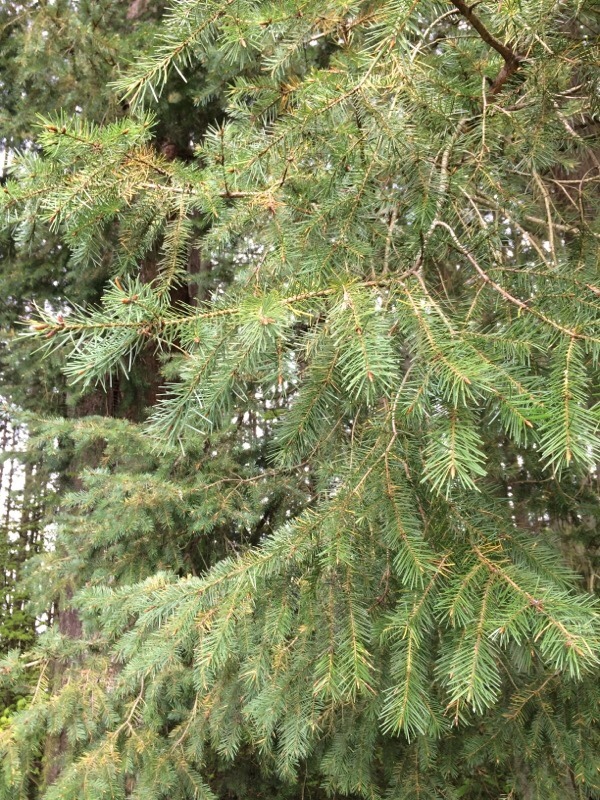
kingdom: Plantae
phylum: Tracheophyta
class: Pinopsida
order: Pinales
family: Pinaceae
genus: Pseudotsuga
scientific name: Pseudotsuga menziesii
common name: Douglas fir
